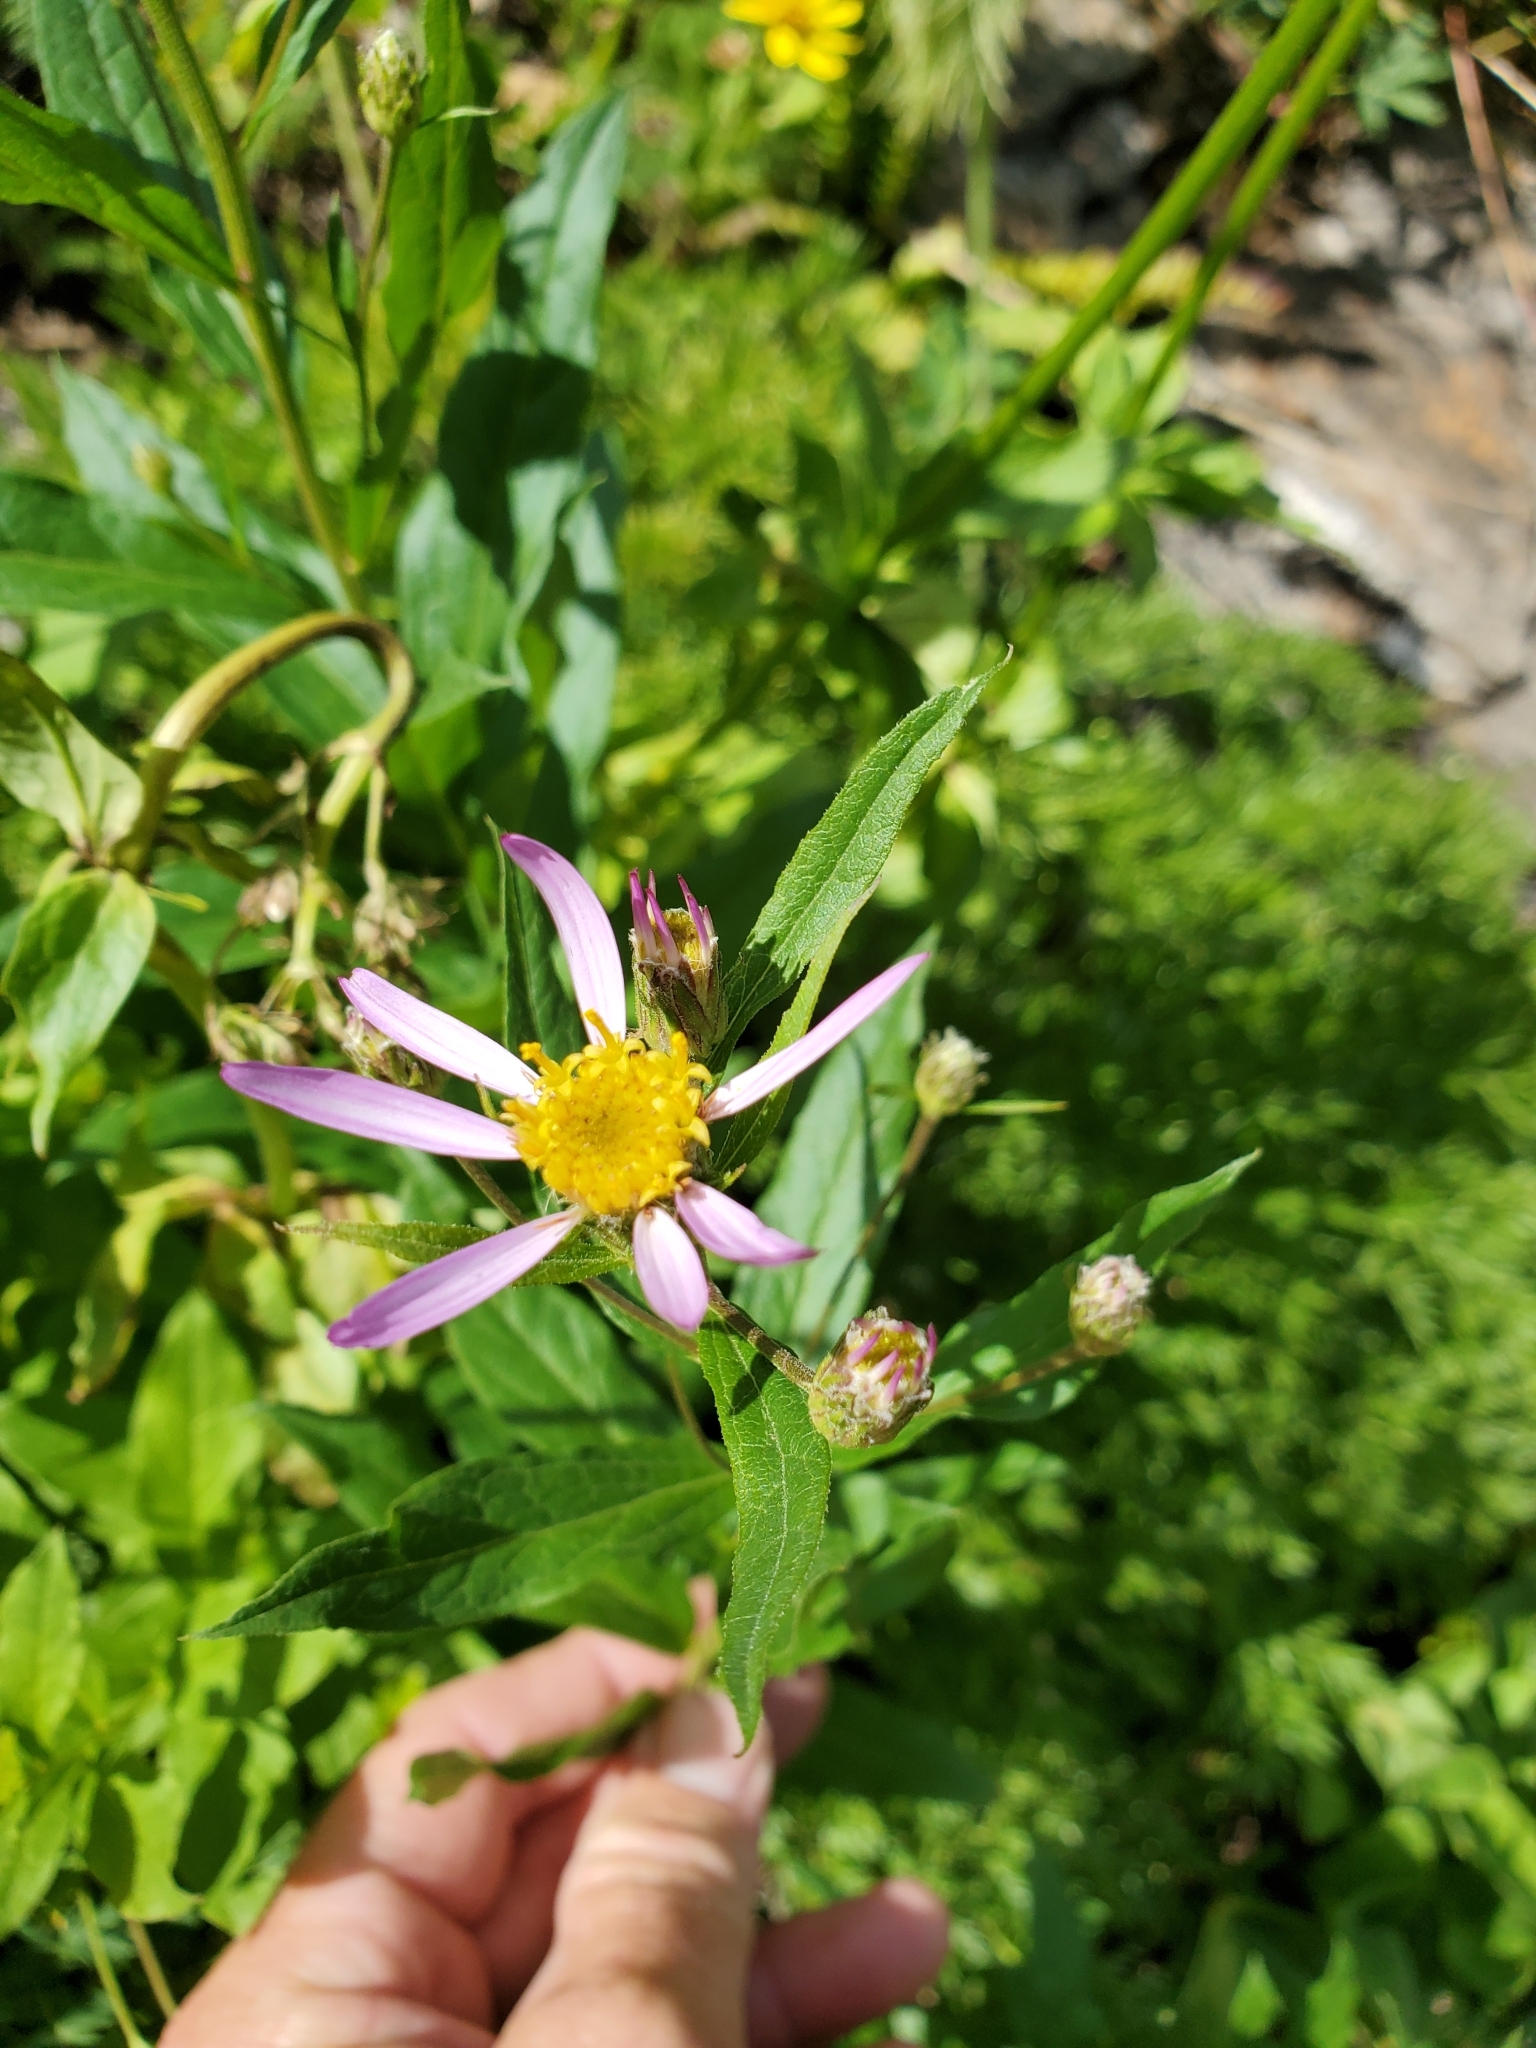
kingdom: Plantae
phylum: Tracheophyta
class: Magnoliopsida
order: Asterales
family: Asteraceae
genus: Eucephalus
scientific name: Eucephalus engelmannii
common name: Engelmann's aster
